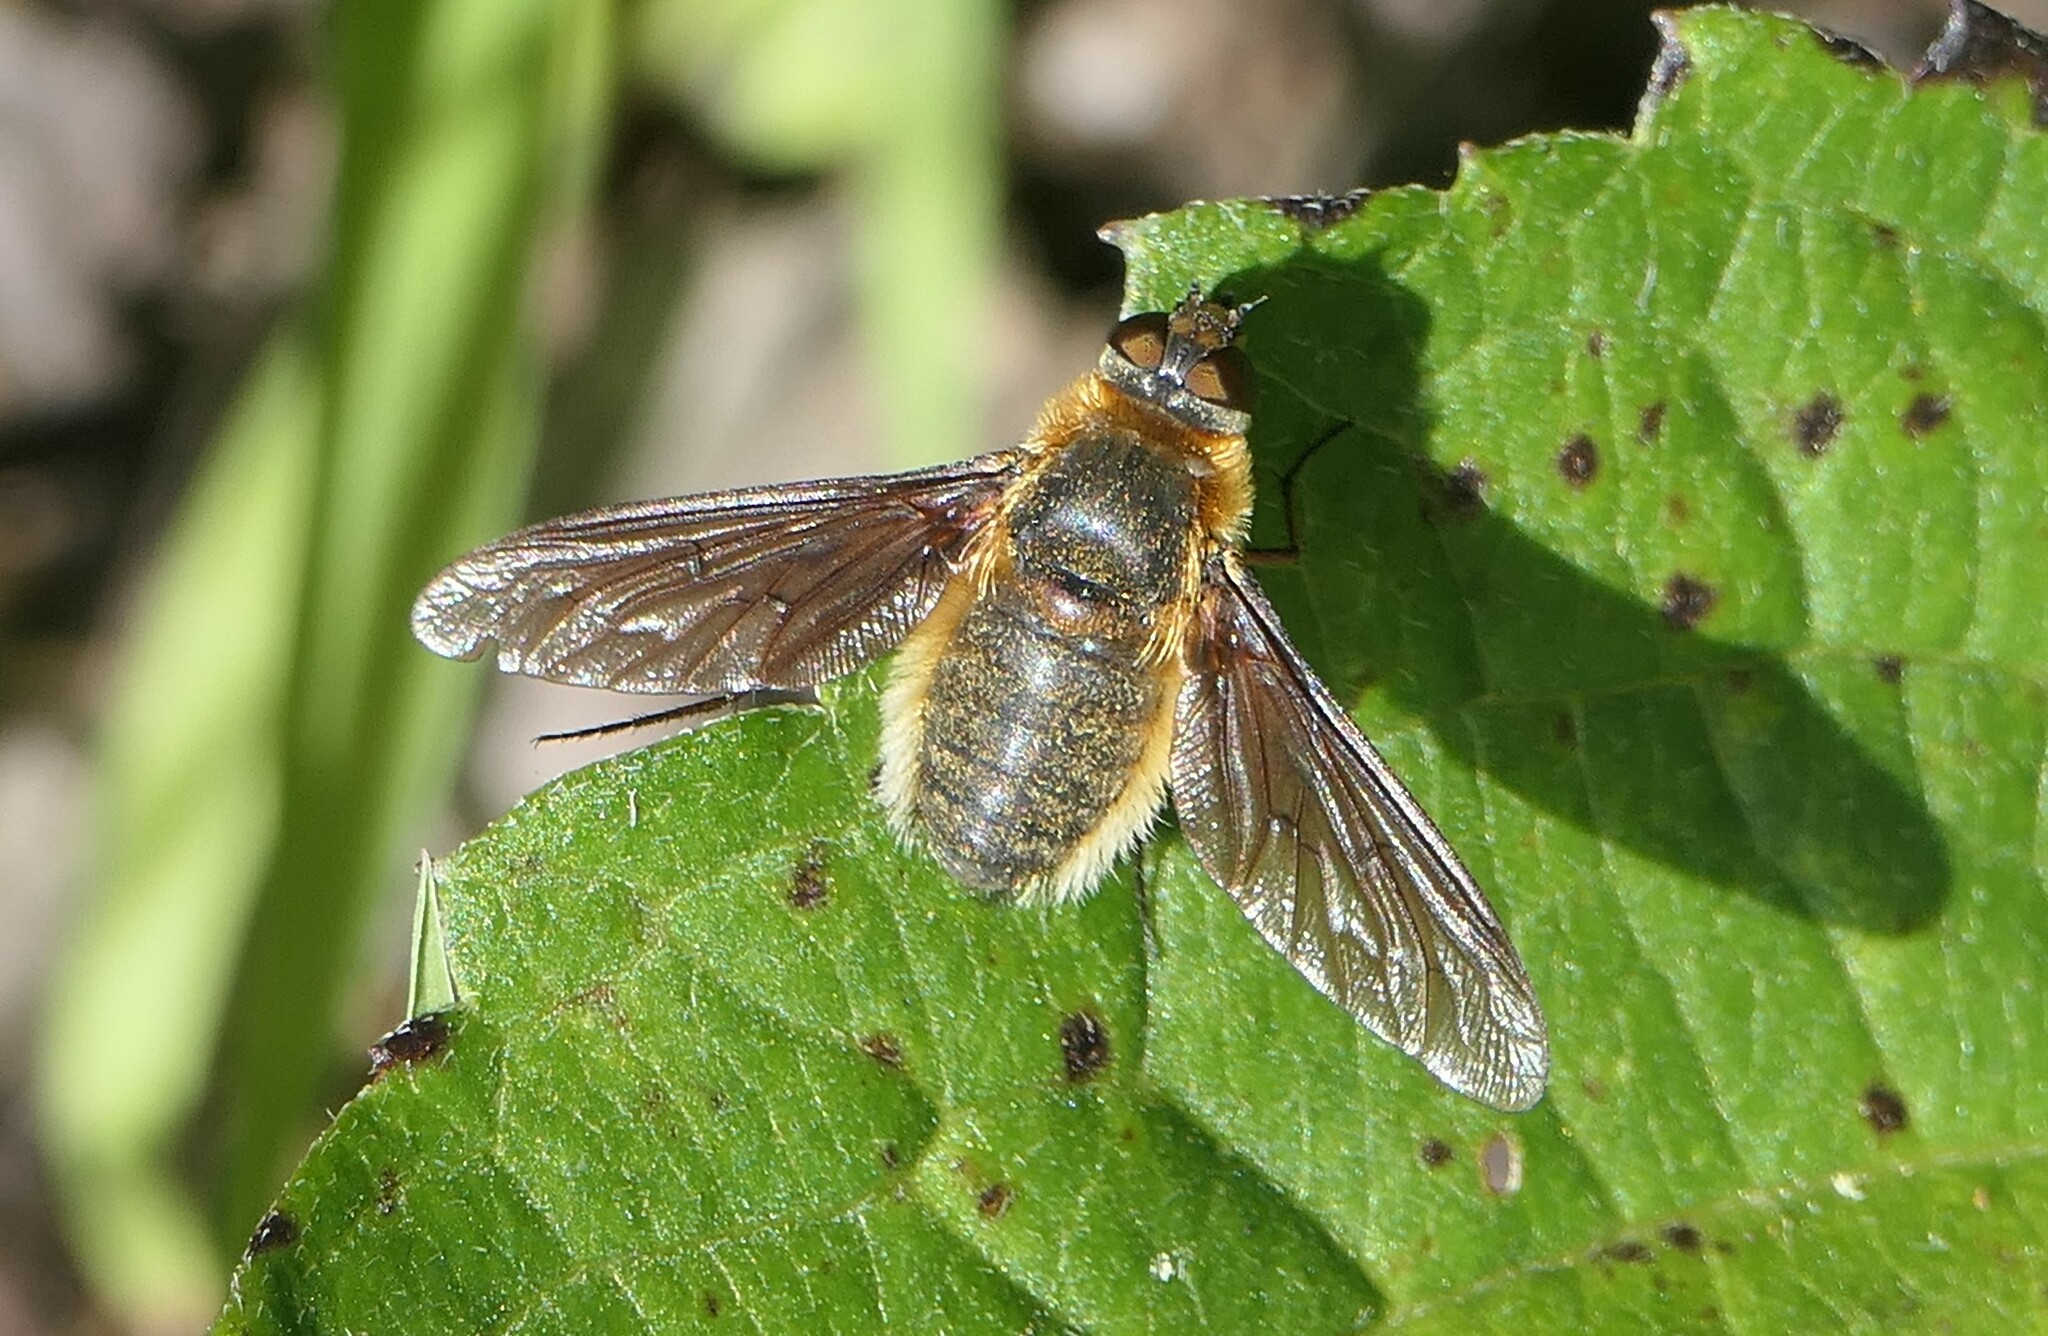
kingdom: Animalia
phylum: Arthropoda
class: Insecta
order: Diptera
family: Bombyliidae
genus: Poecilanthrax
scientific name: Poecilanthrax tegminipennis
